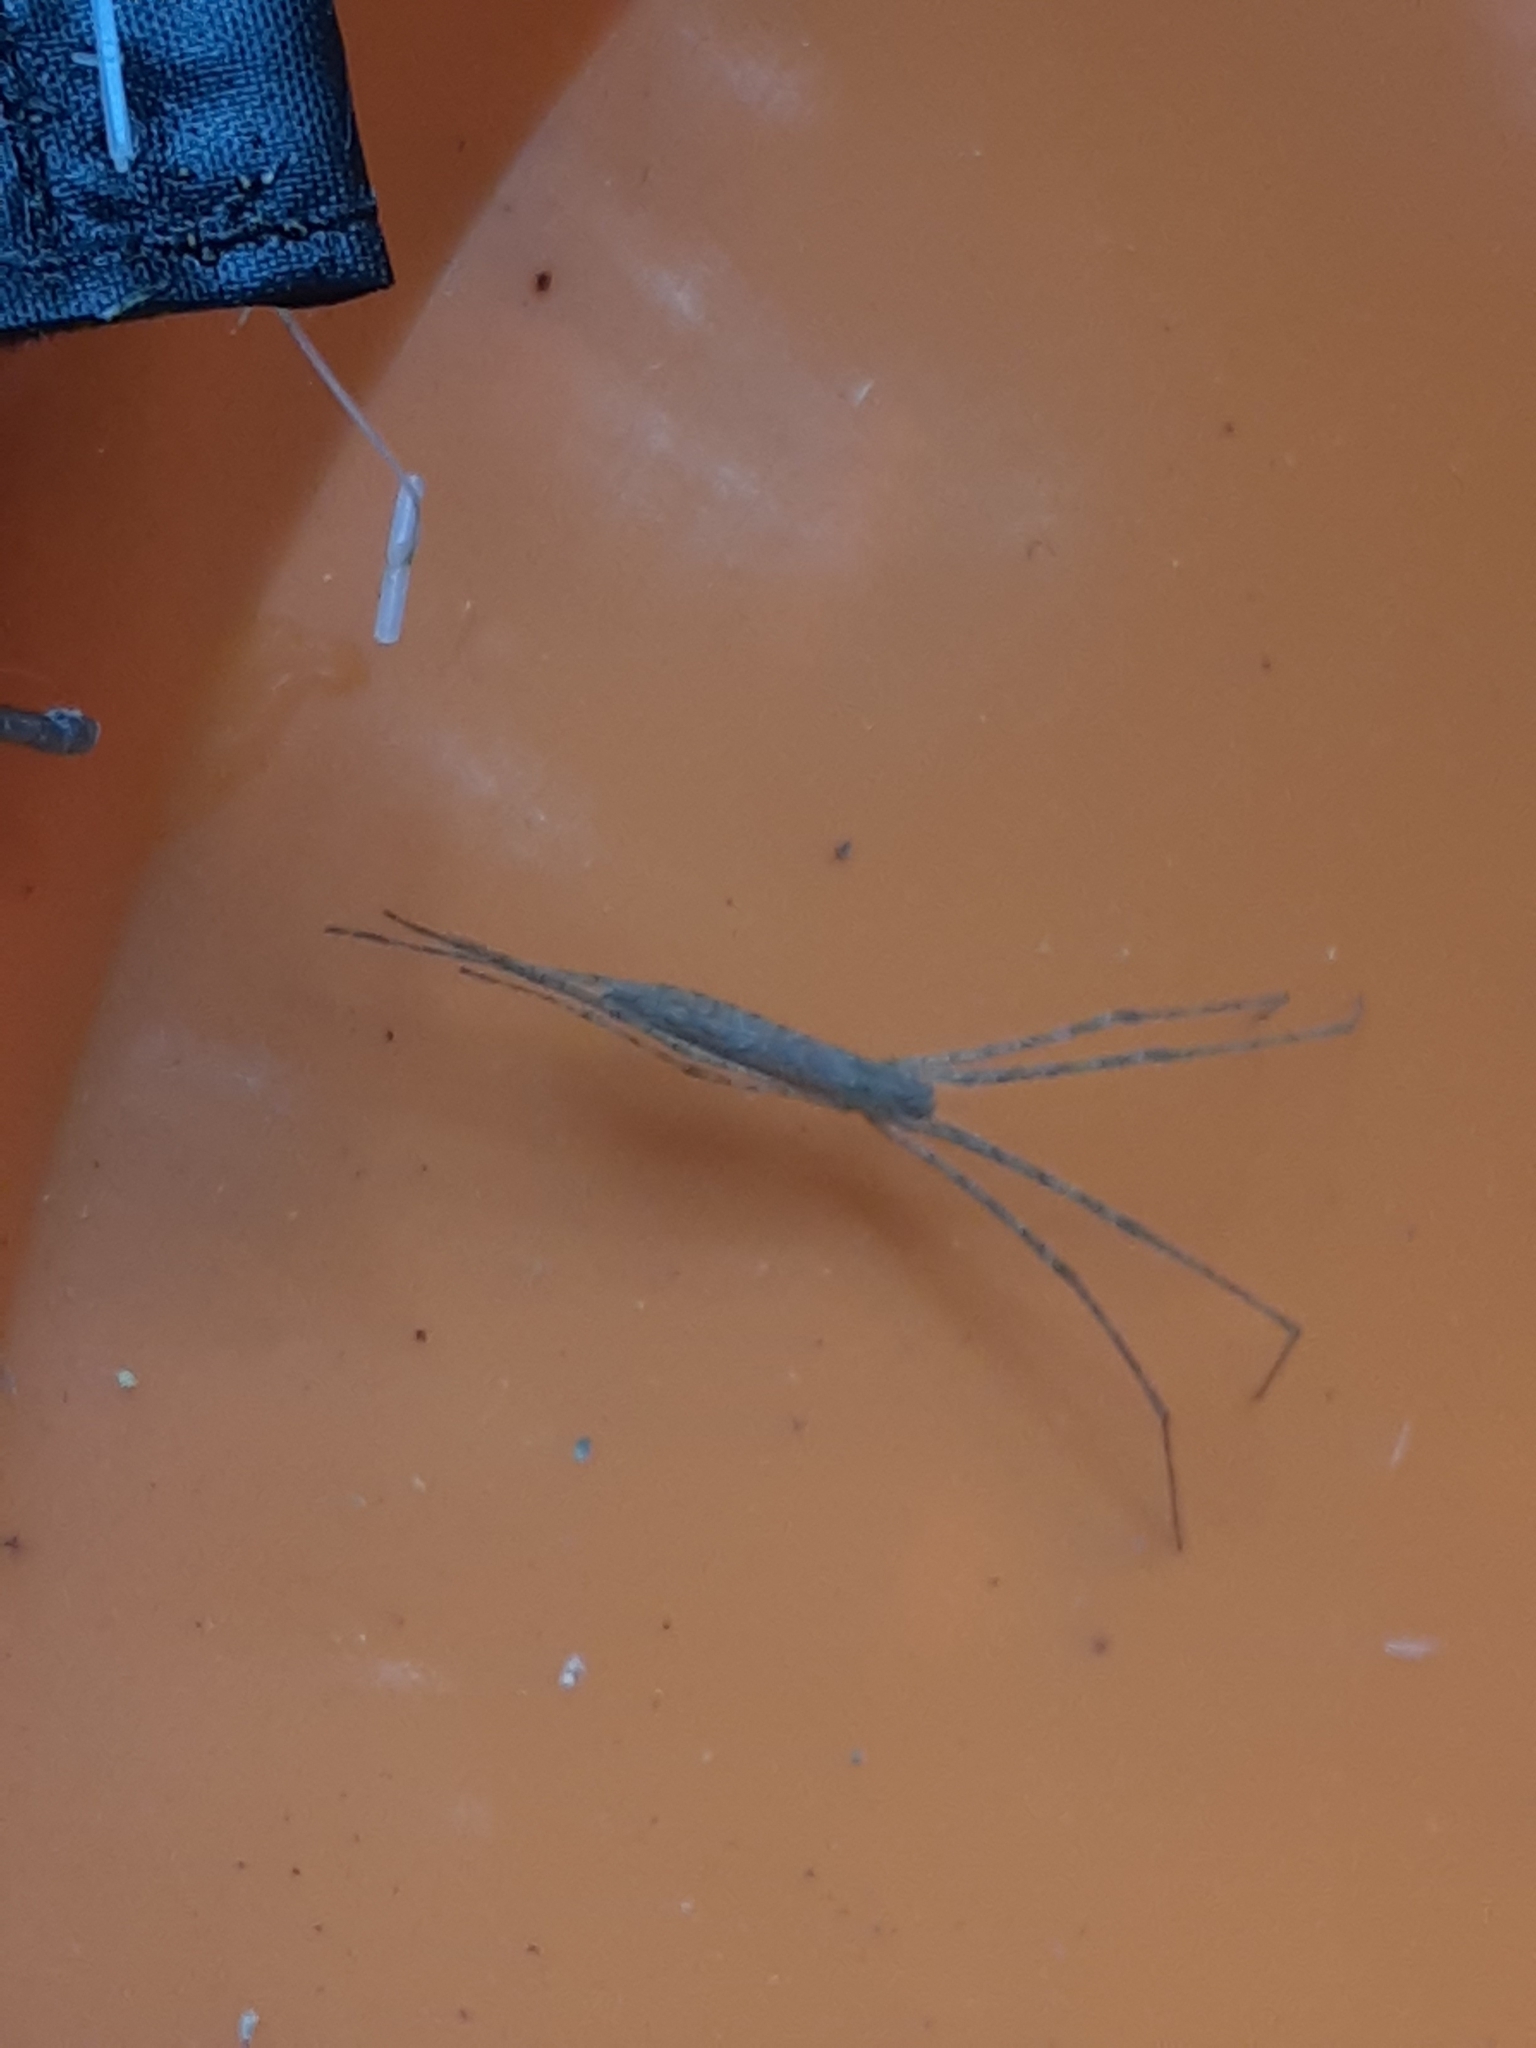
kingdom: Animalia
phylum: Arthropoda
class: Arachnida
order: Araneae
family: Deinopidae
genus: Deinopis
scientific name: Deinopis spinosa
